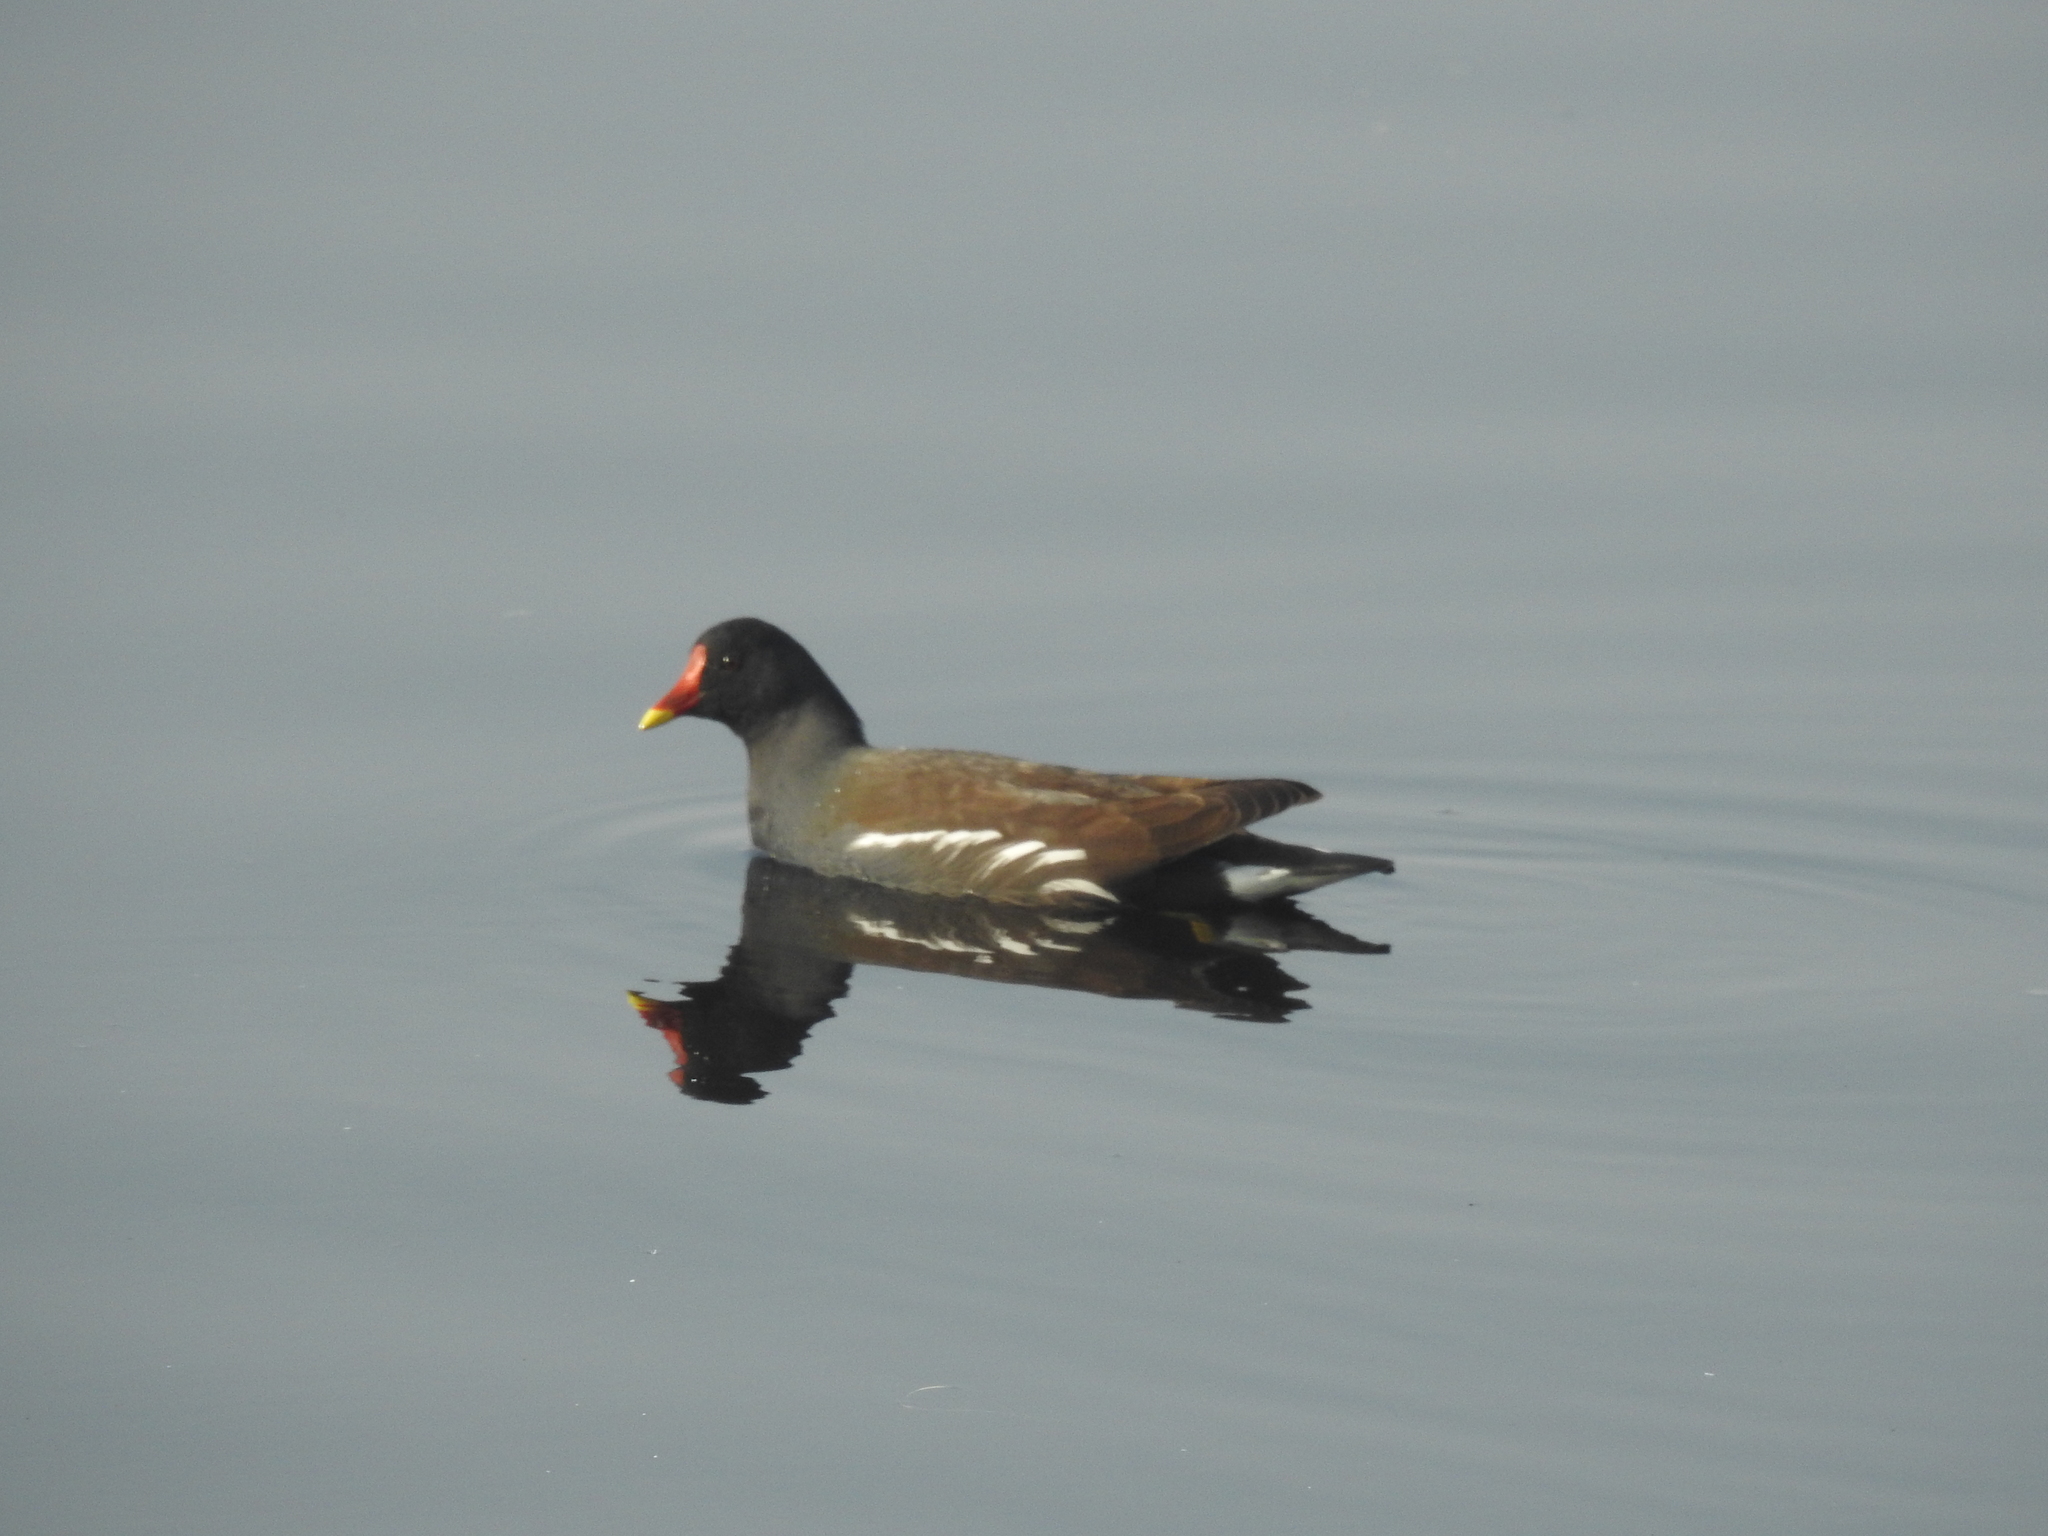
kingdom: Animalia
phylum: Chordata
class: Aves
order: Gruiformes
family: Rallidae
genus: Gallinula
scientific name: Gallinula chloropus
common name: Common moorhen
